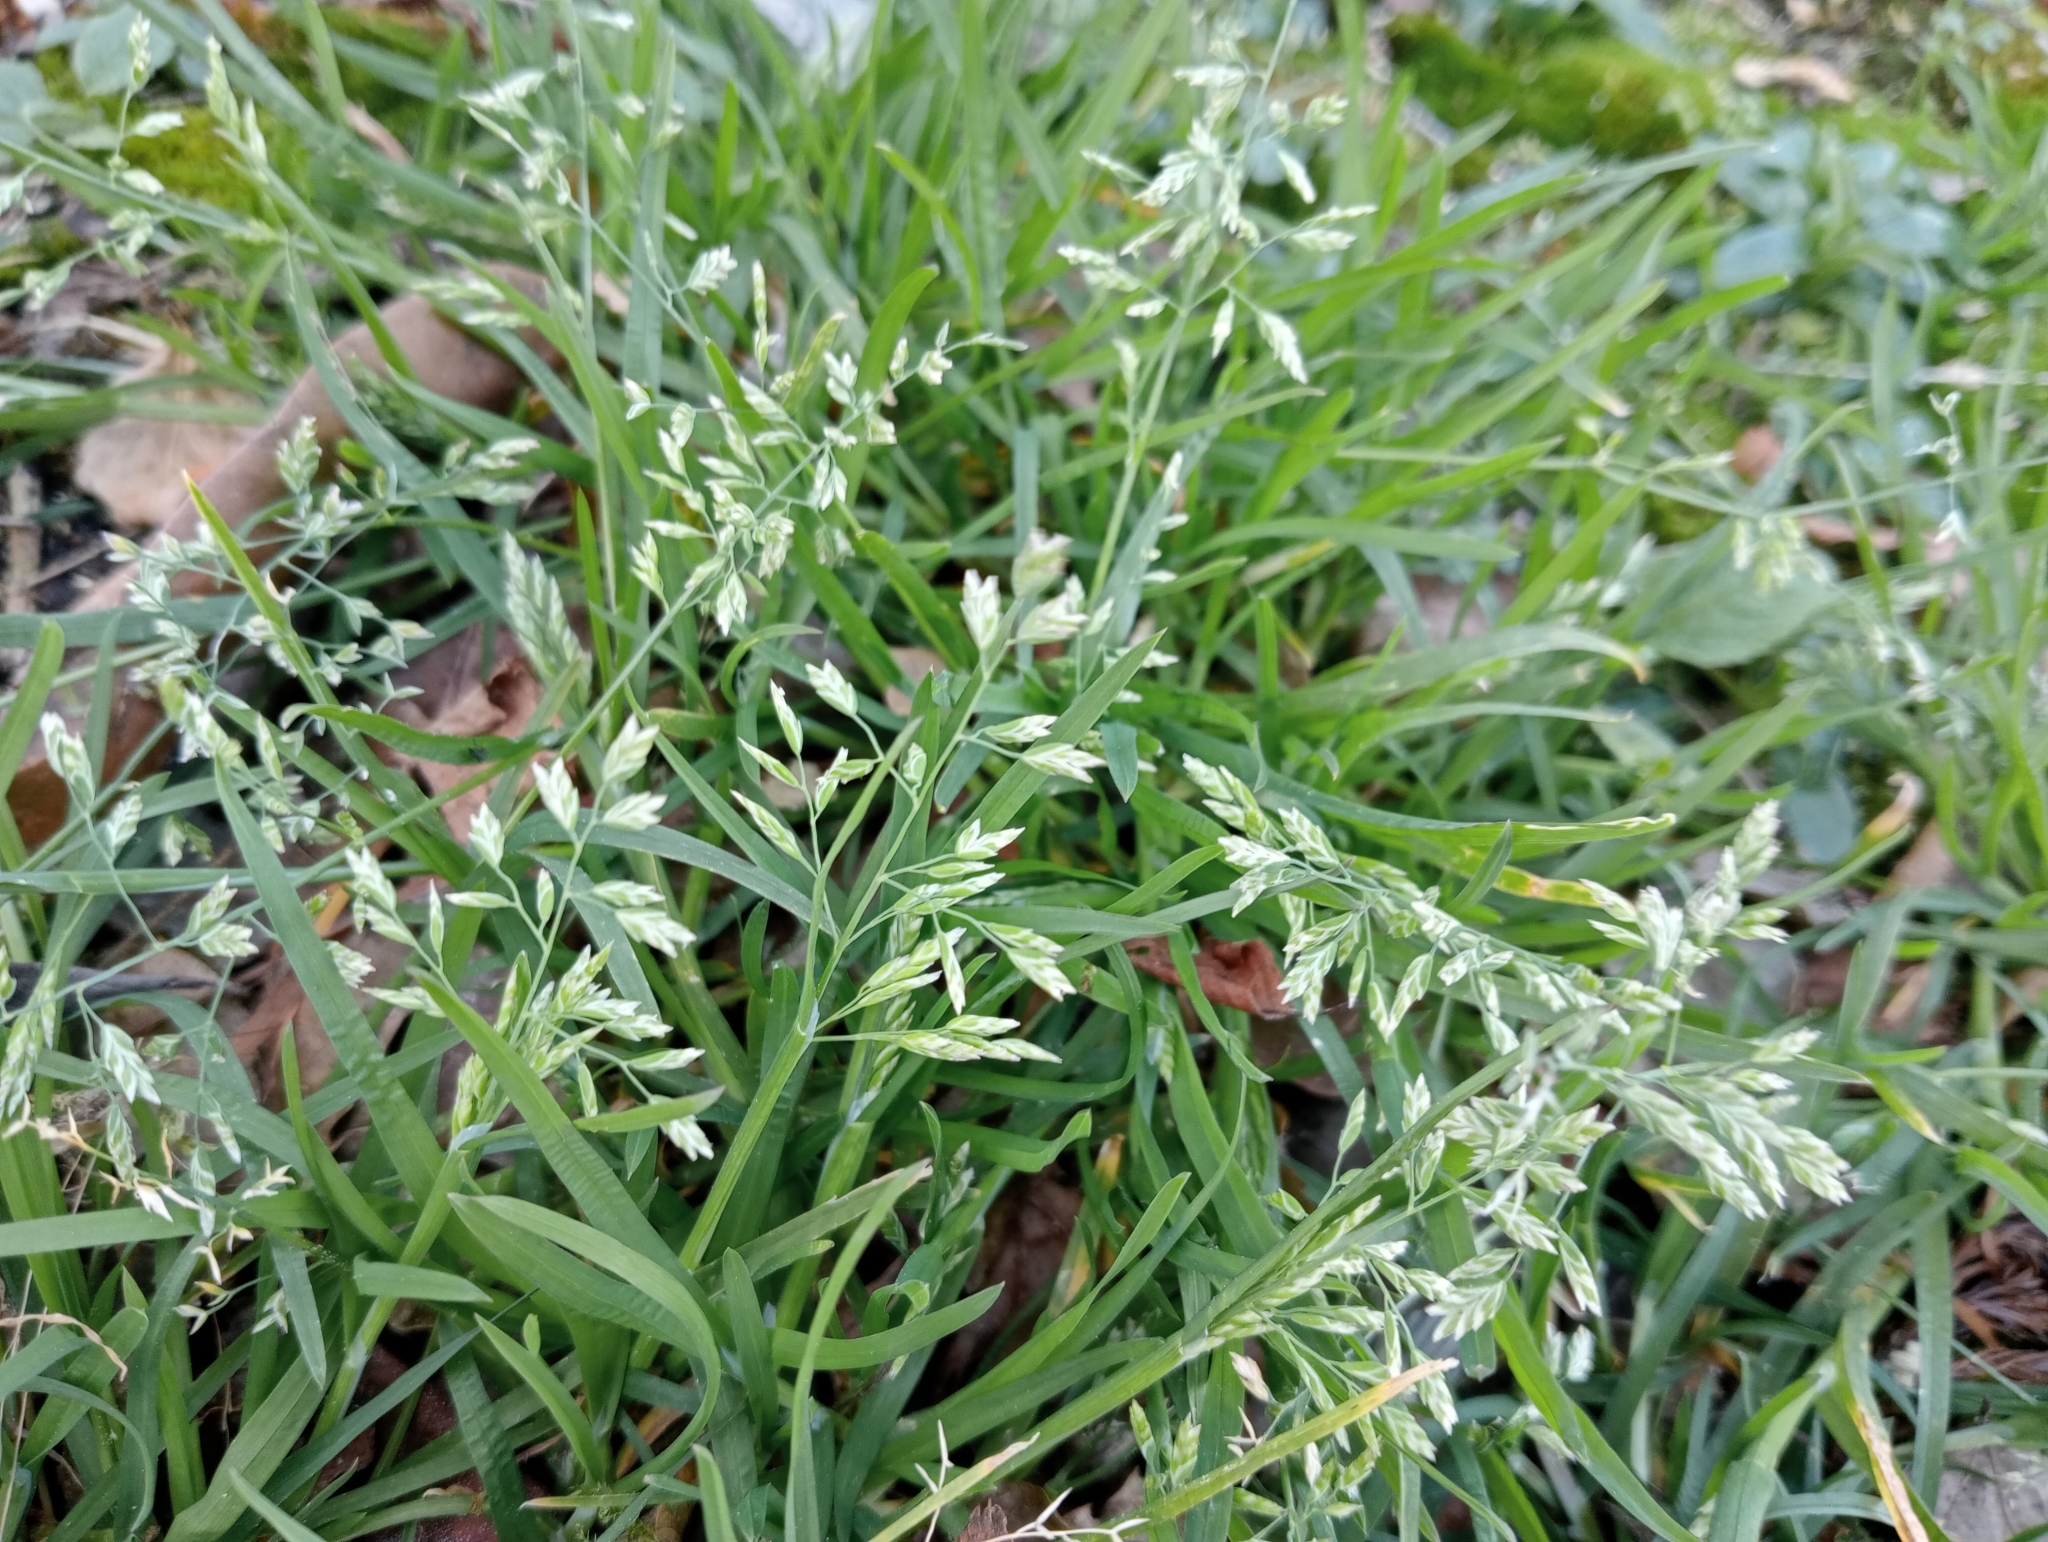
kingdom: Plantae
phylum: Tracheophyta
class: Liliopsida
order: Poales
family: Poaceae
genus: Poa
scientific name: Poa annua
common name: Annual bluegrass
